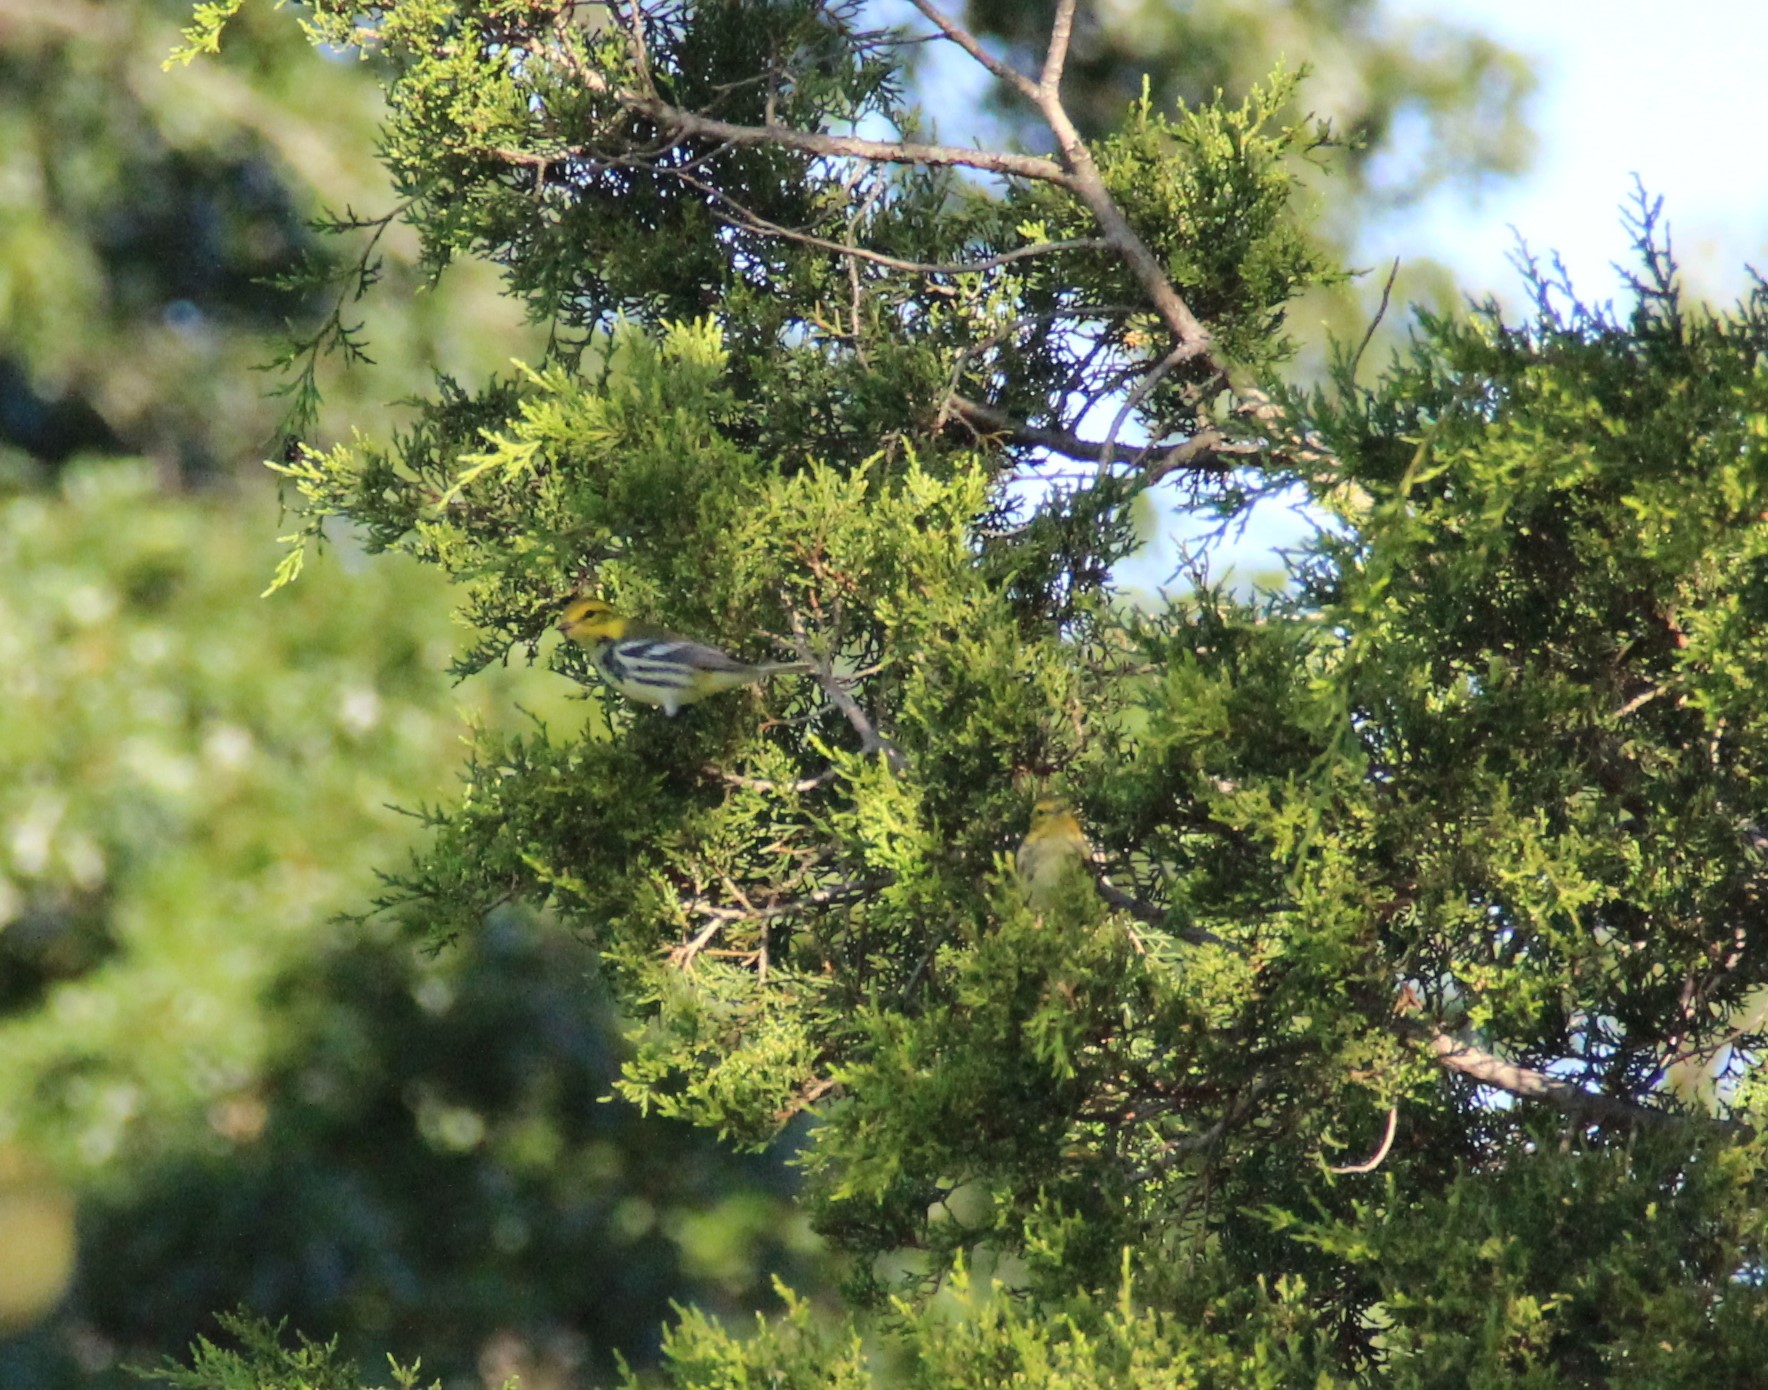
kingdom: Animalia
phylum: Chordata
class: Aves
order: Passeriformes
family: Parulidae
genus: Setophaga
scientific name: Setophaga virens
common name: Black-throated green warbler
